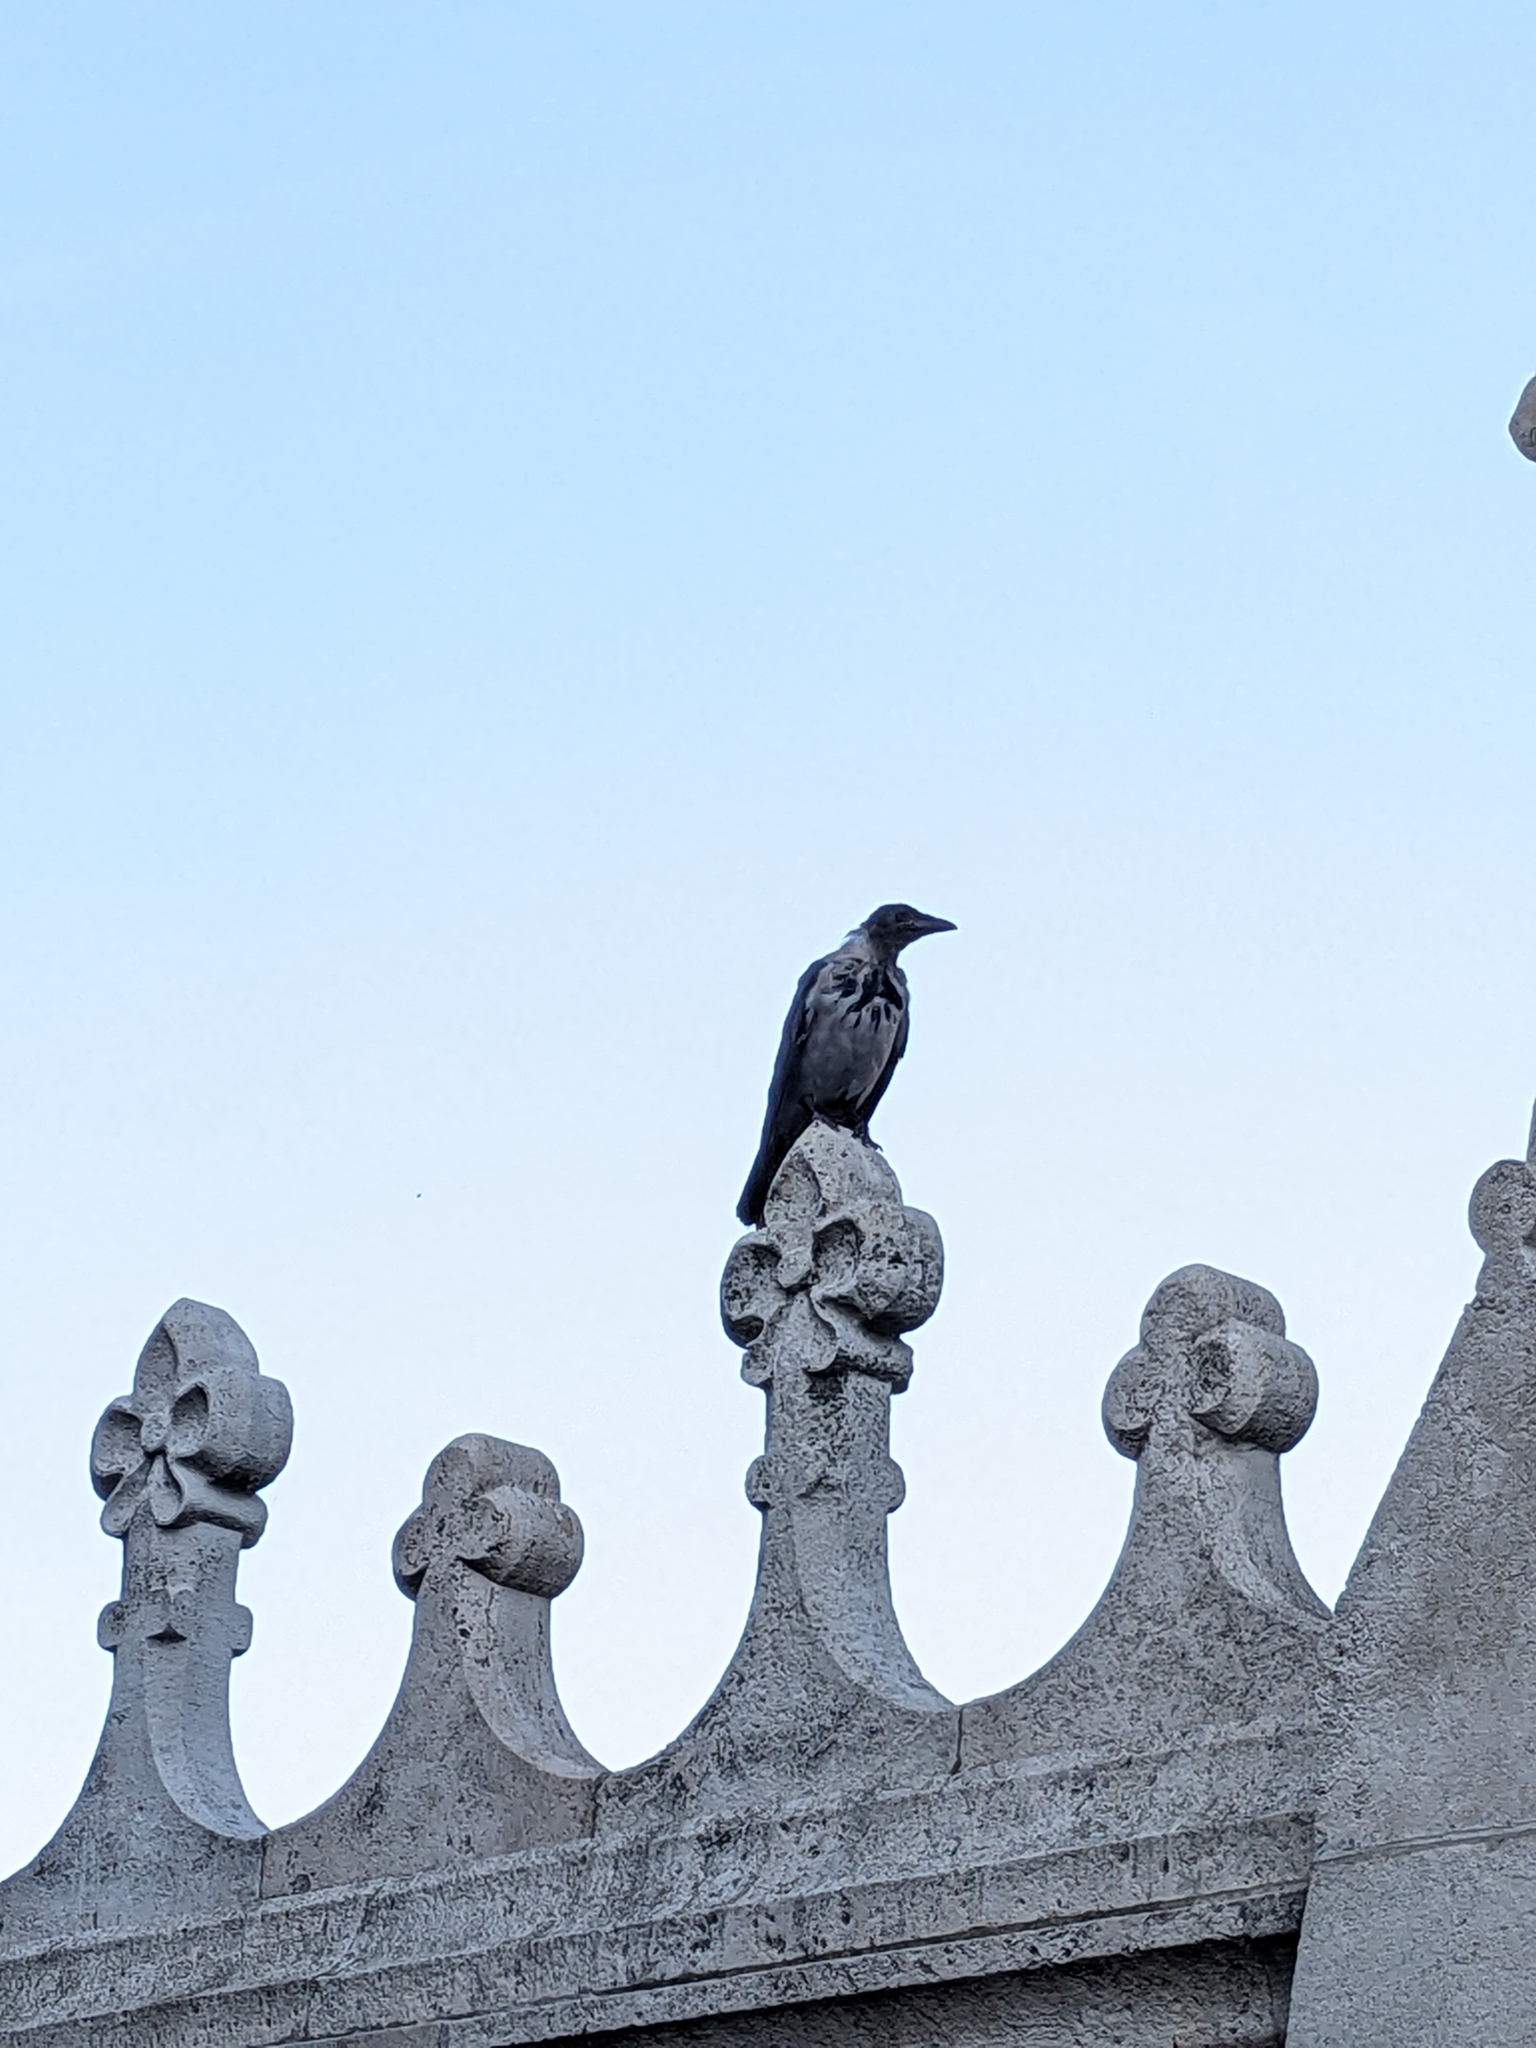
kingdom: Animalia
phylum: Chordata
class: Aves
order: Passeriformes
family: Corvidae
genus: Corvus
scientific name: Corvus cornix
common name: Hooded crow
